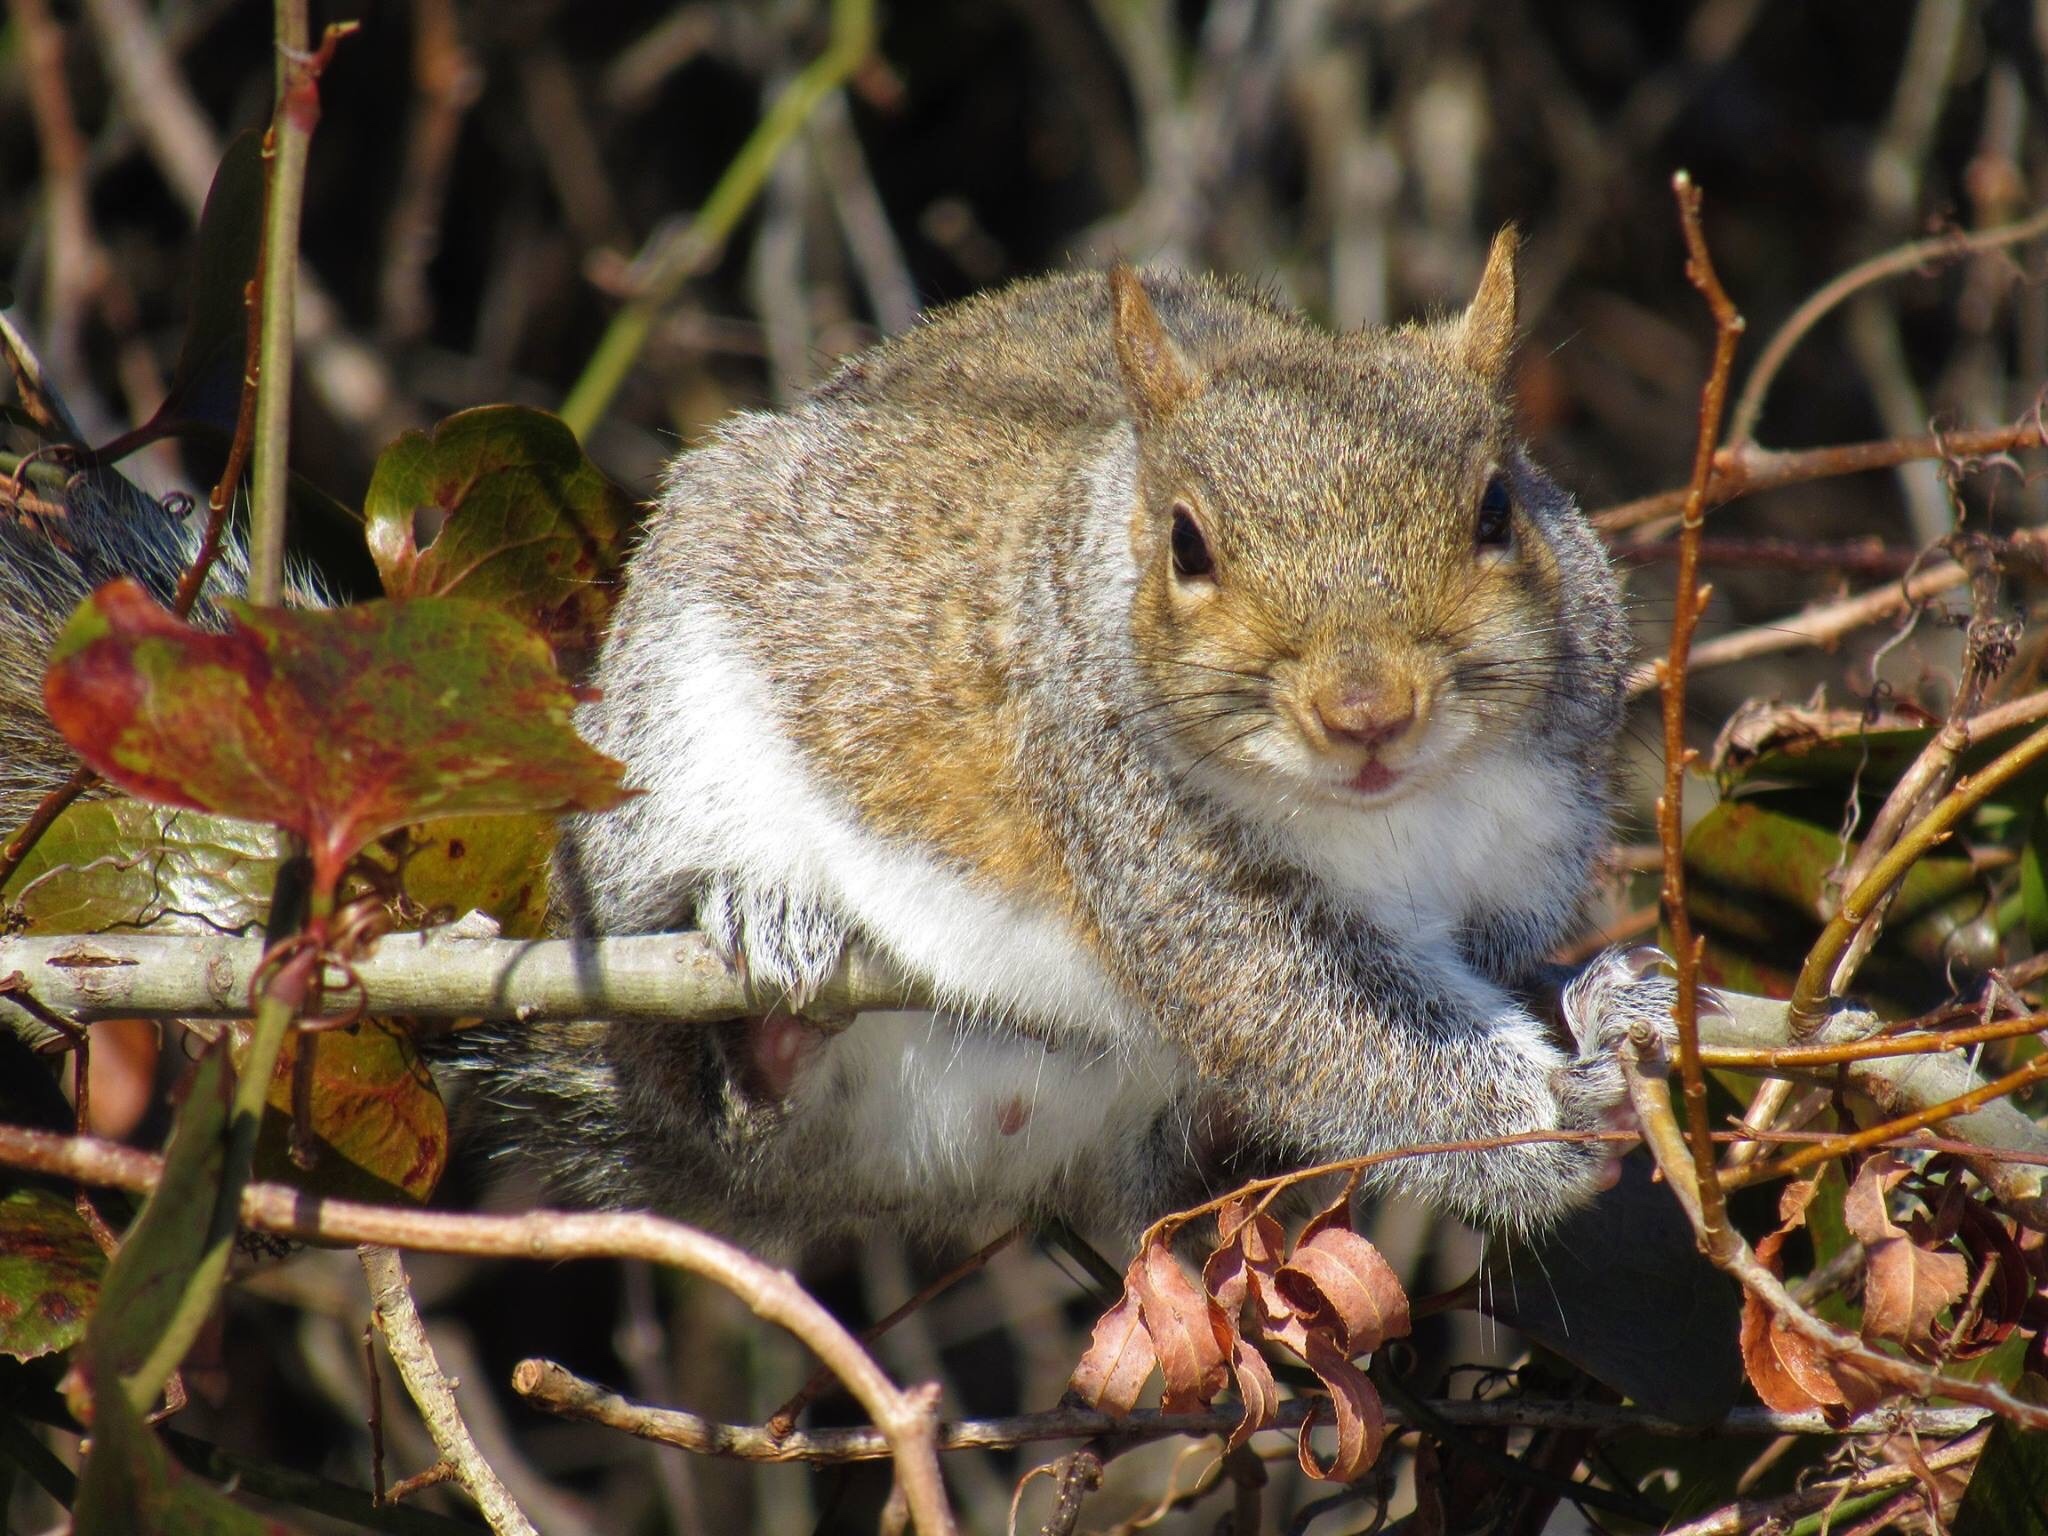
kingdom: Animalia
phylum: Chordata
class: Mammalia
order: Rodentia
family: Sciuridae
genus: Sciurus
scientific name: Sciurus carolinensis
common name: Eastern gray squirrel
